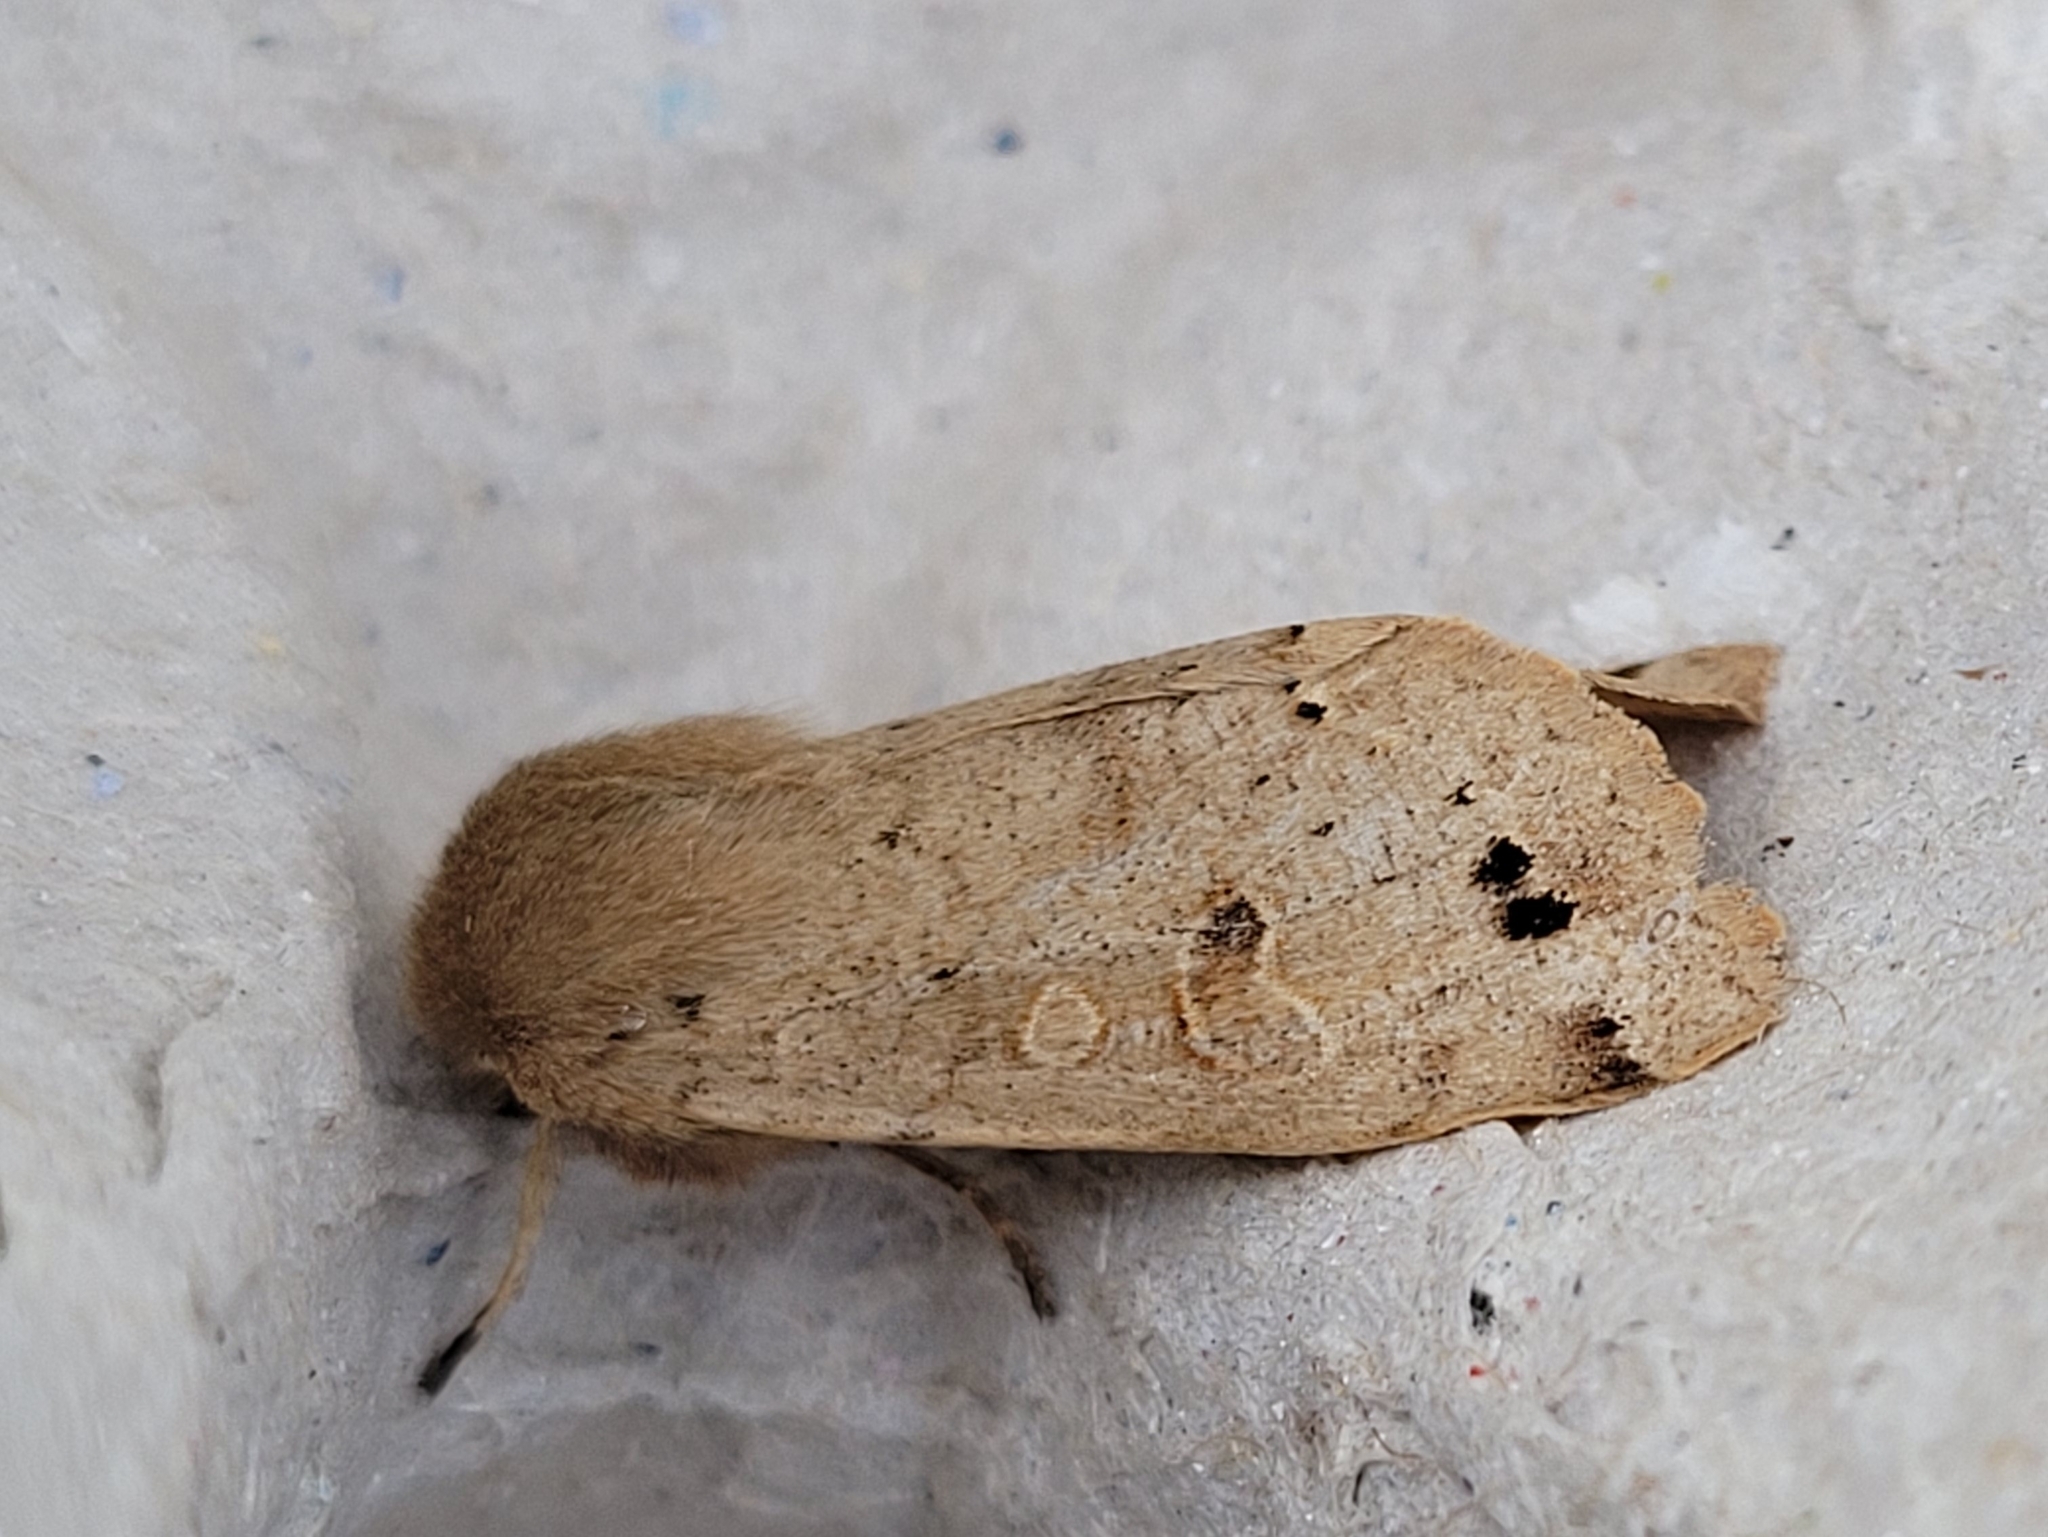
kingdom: Animalia
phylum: Arthropoda
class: Insecta
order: Lepidoptera
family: Noctuidae
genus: Anorthoa
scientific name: Anorthoa munda
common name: Twin-spotted quaker
